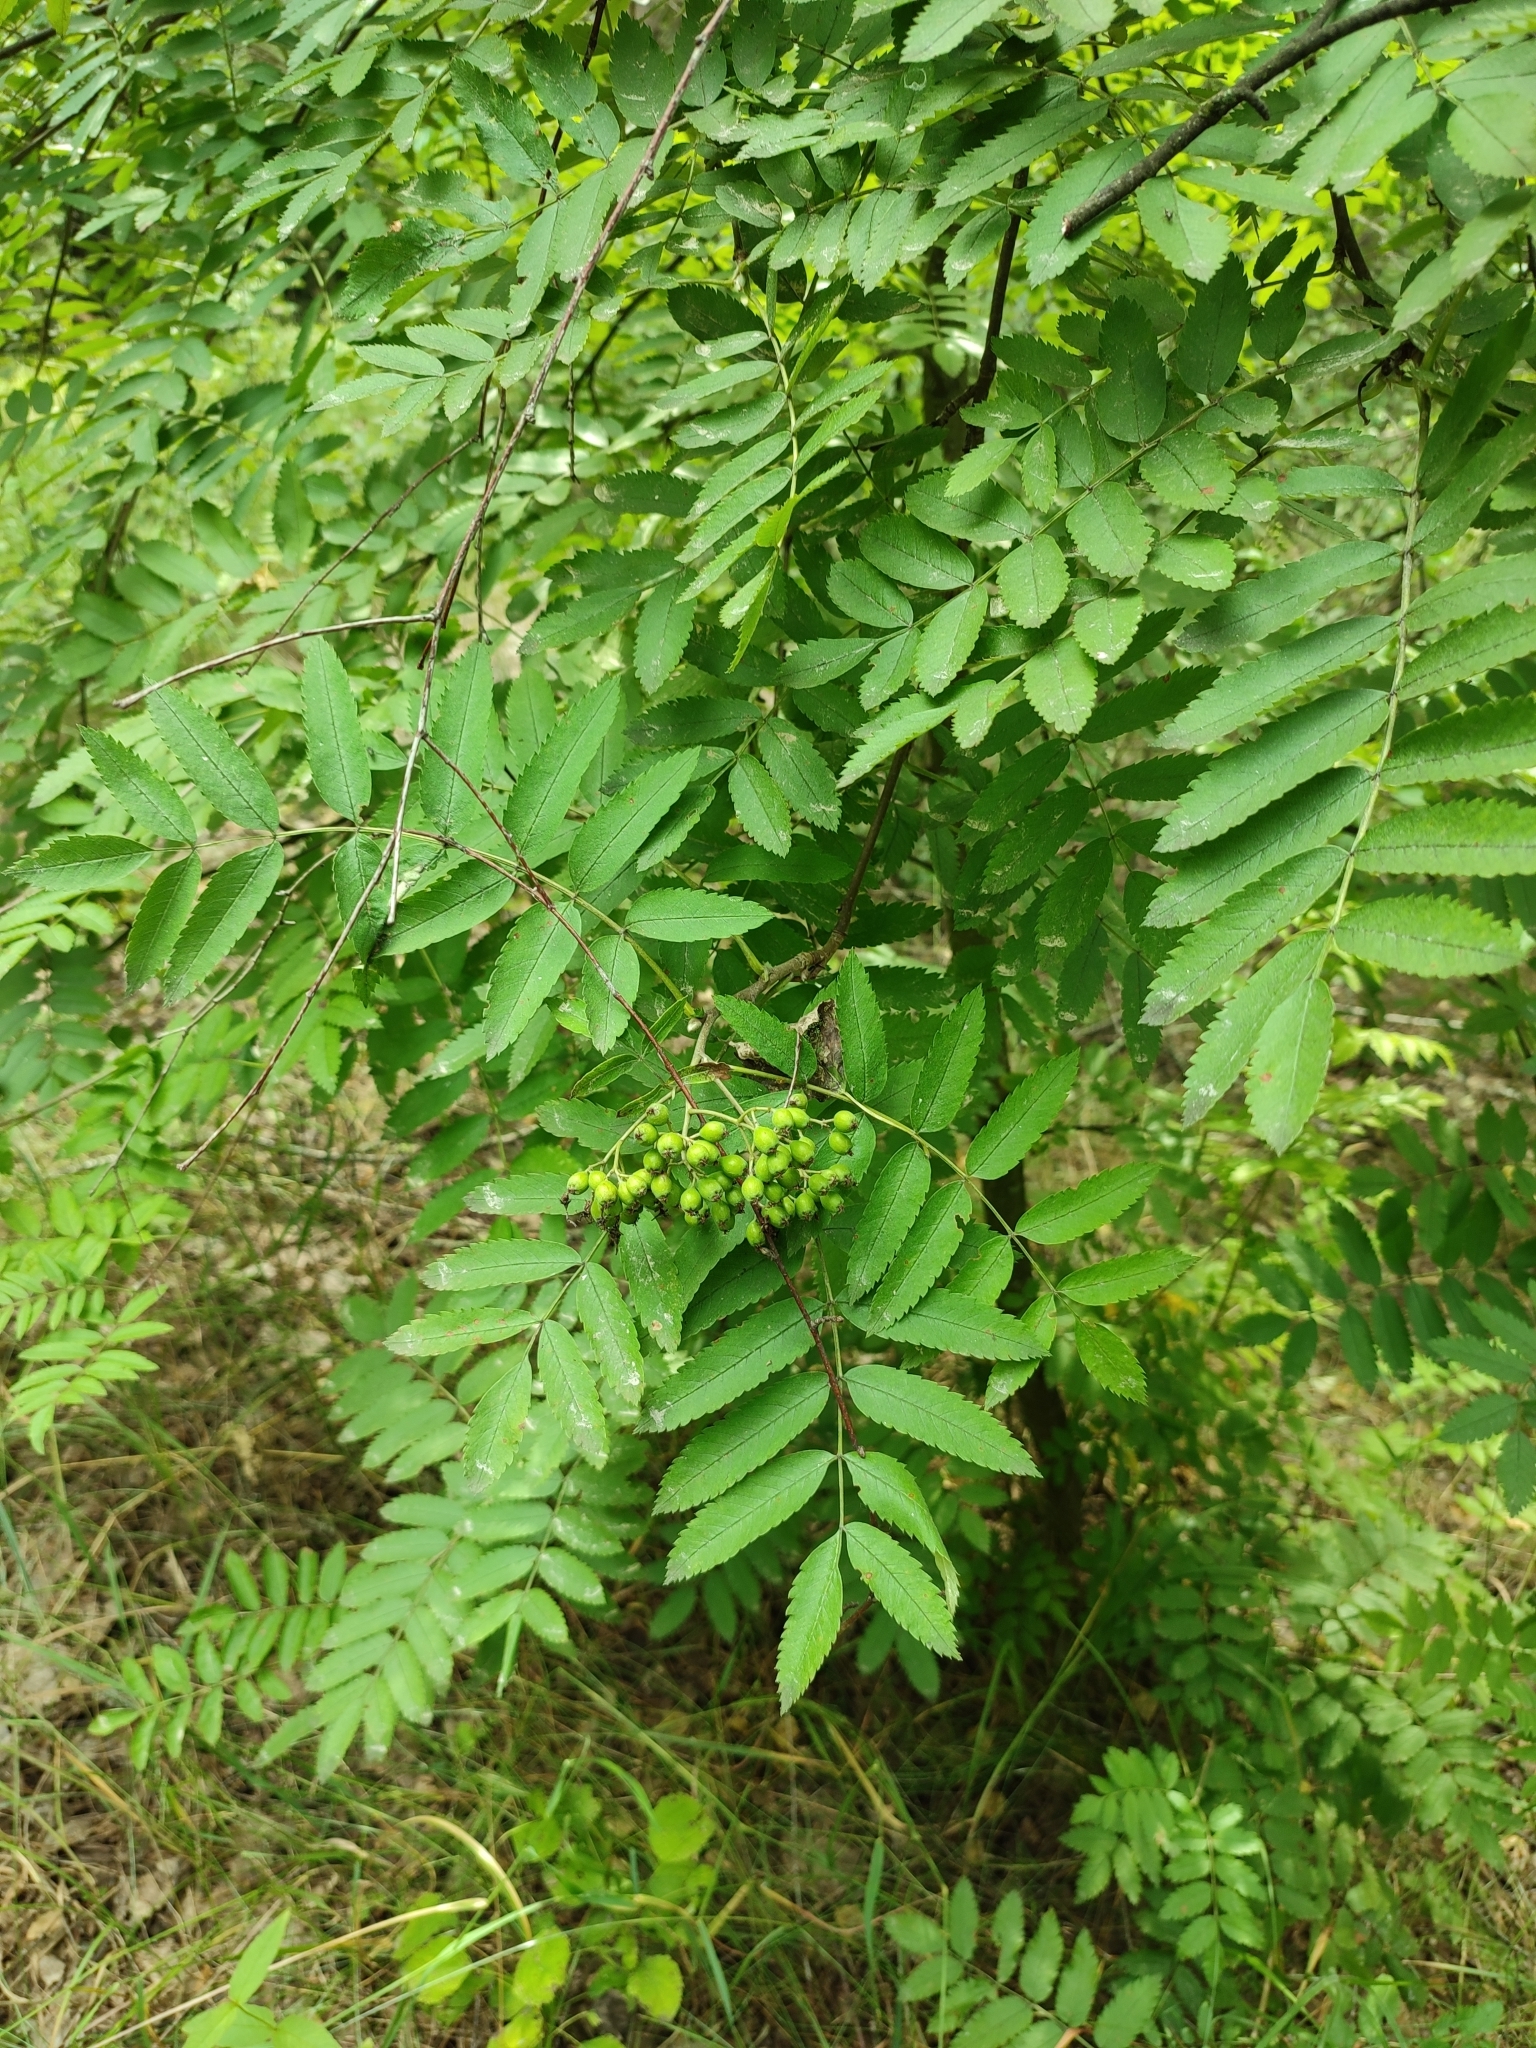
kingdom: Plantae
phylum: Tracheophyta
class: Magnoliopsida
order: Rosales
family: Rosaceae
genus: Sorbus
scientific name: Sorbus aucuparia
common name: Rowan
